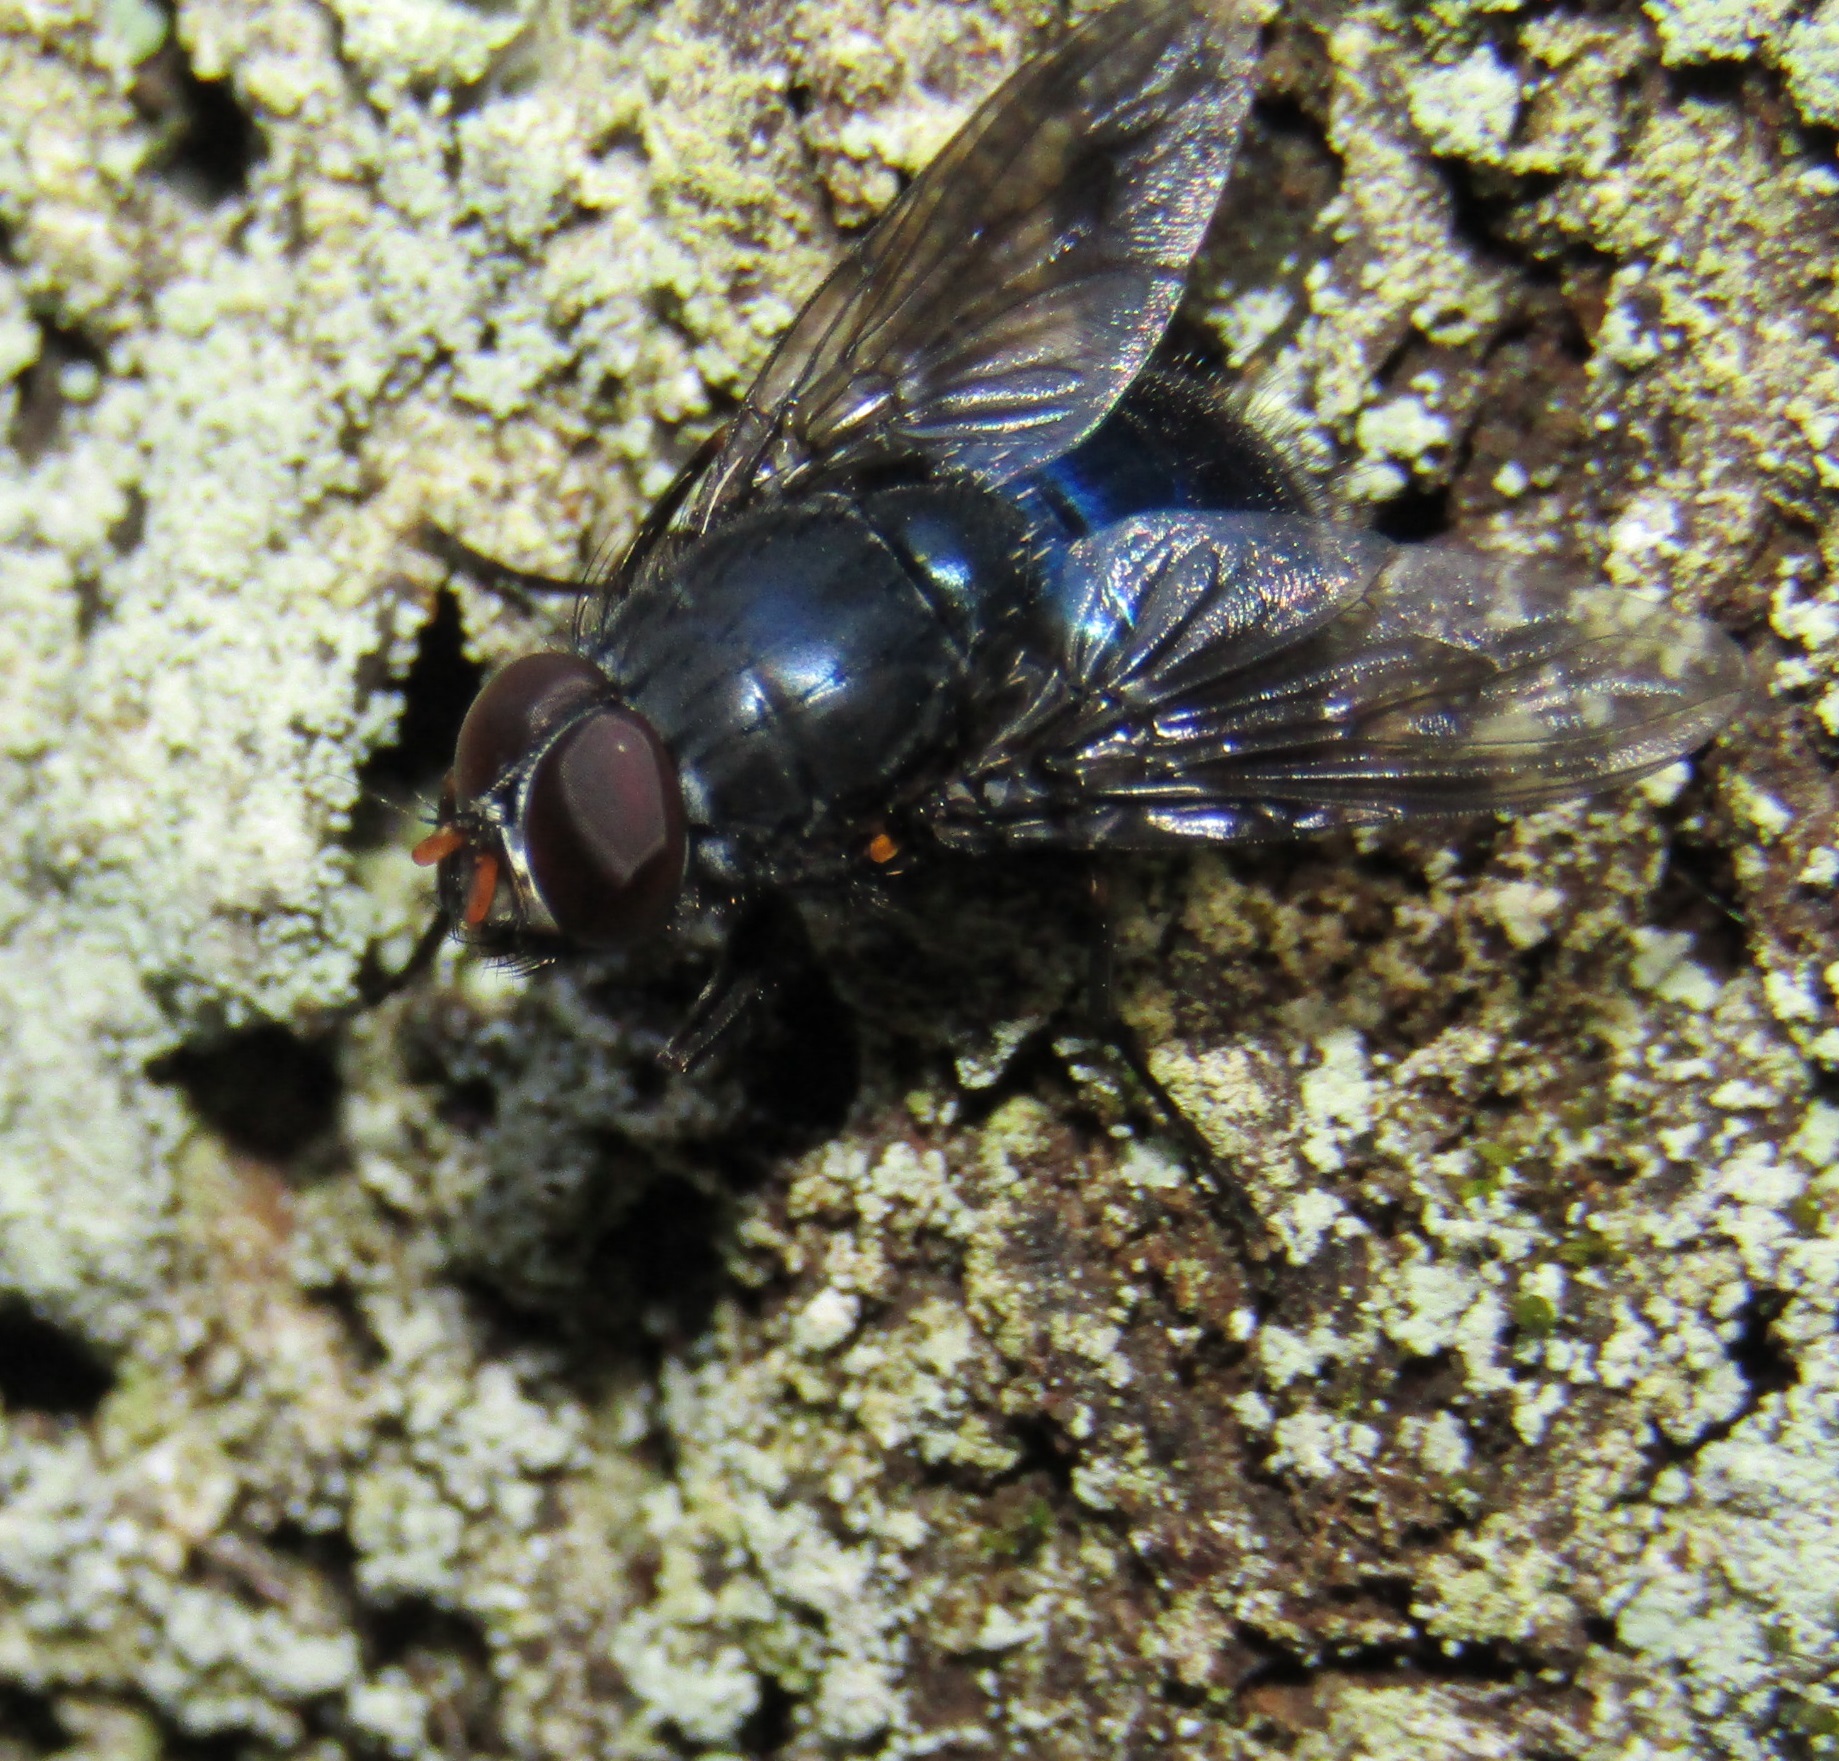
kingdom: Animalia
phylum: Arthropoda
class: Insecta
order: Diptera
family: Muscidae
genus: Calliphoroides
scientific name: Calliphoroides antennatis
